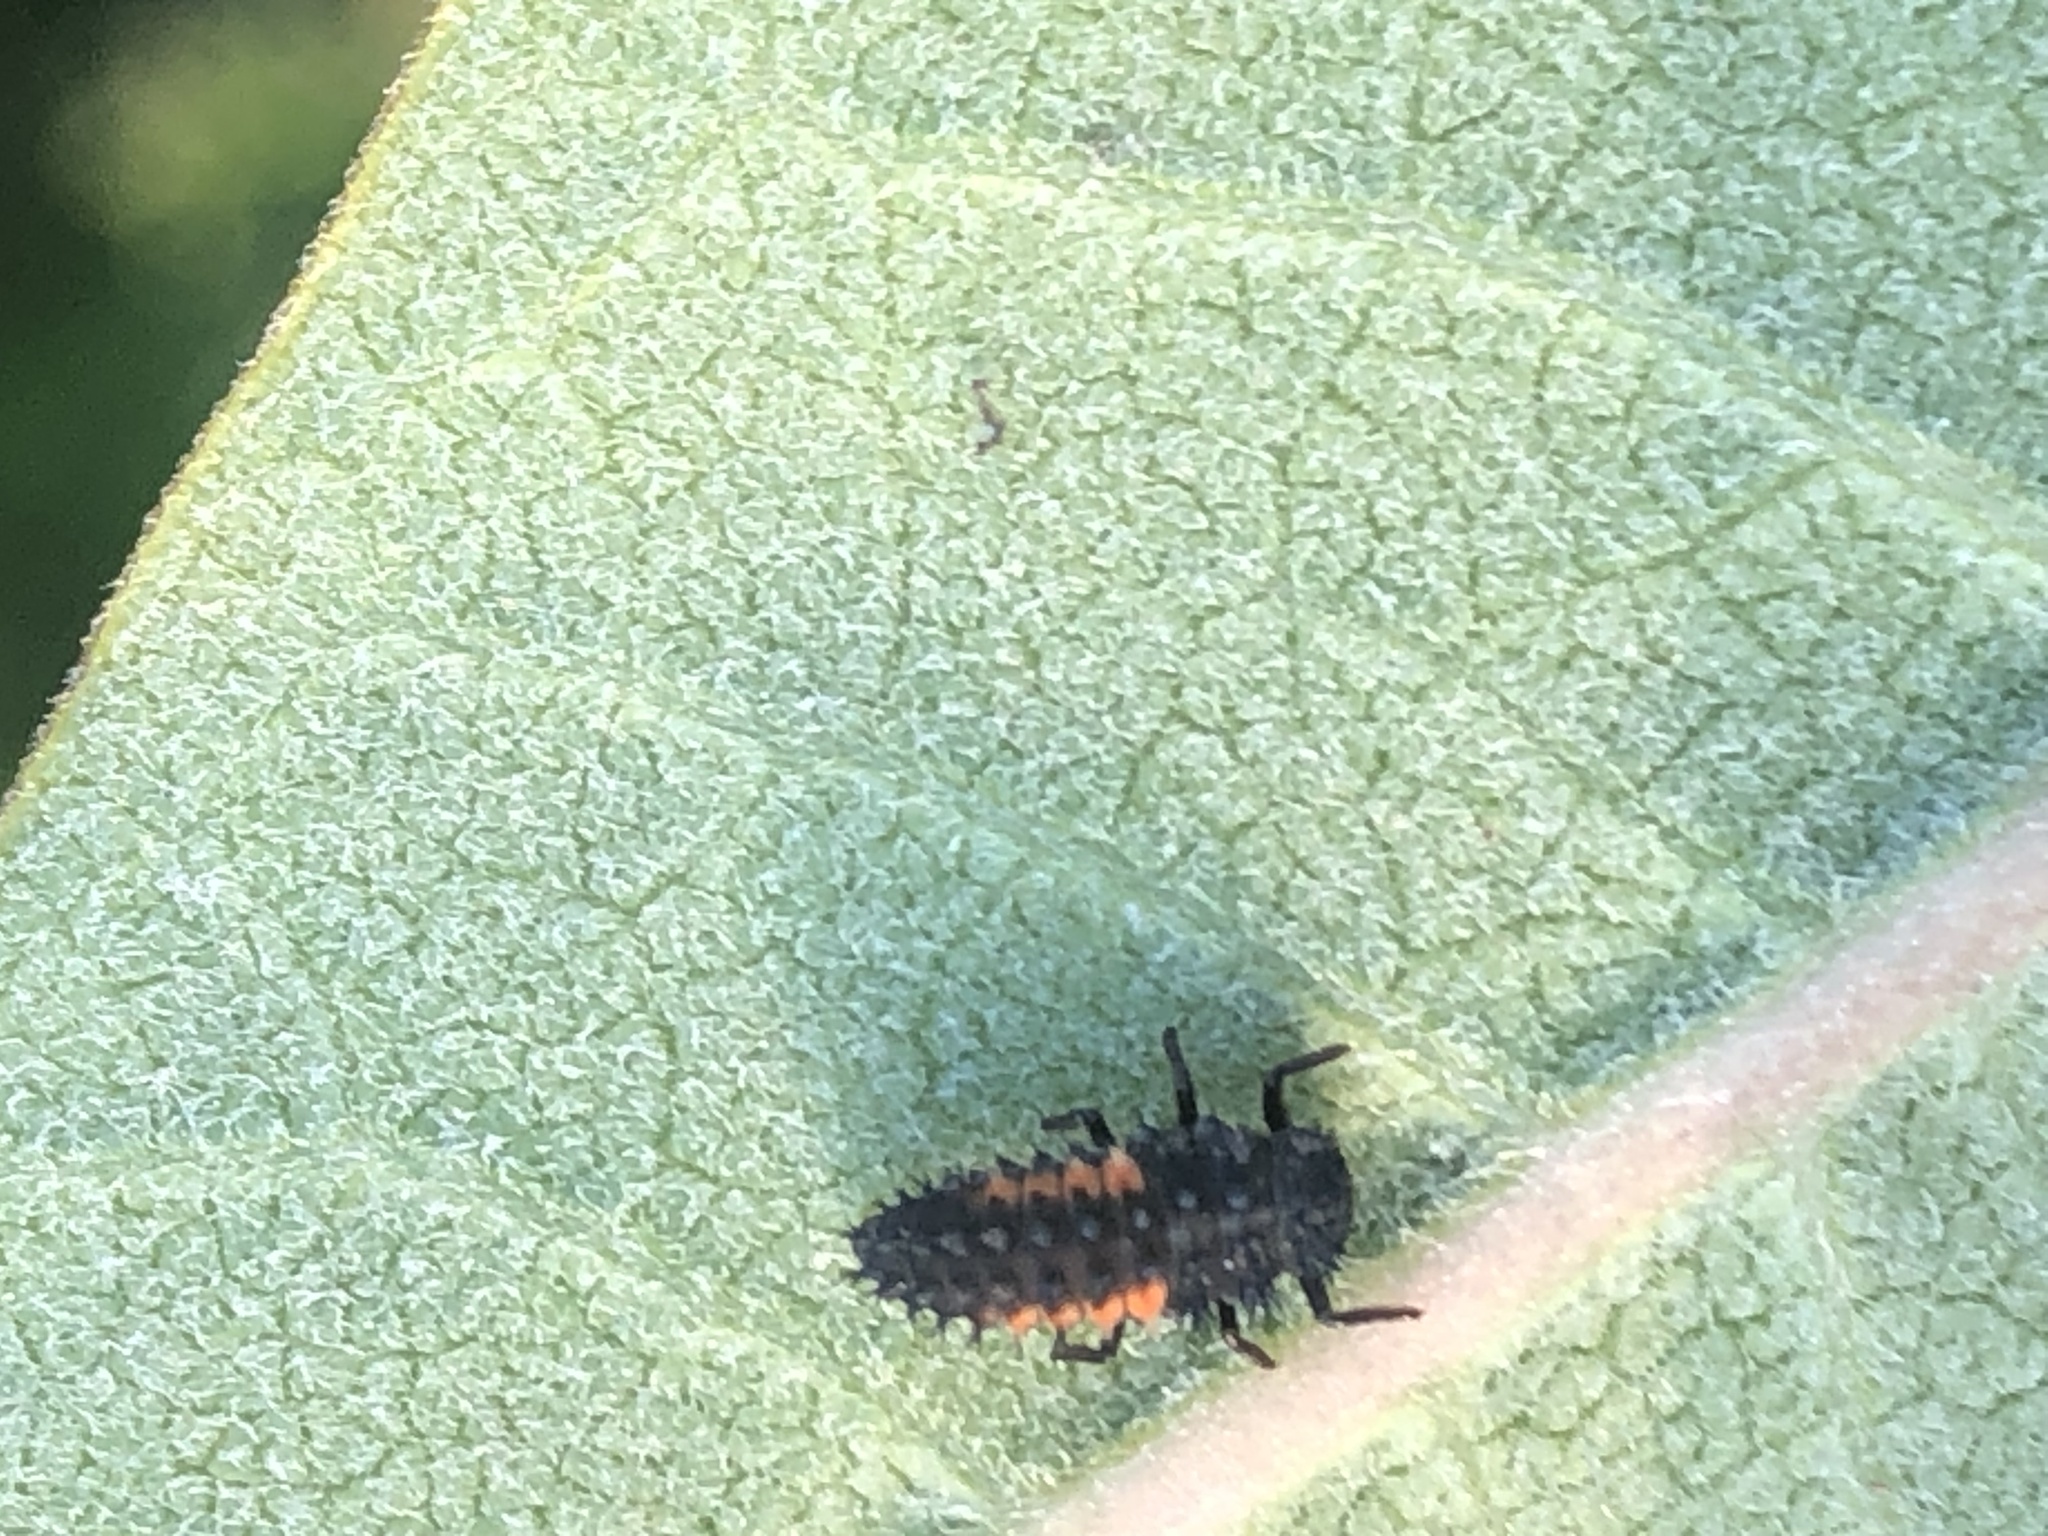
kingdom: Animalia
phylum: Arthropoda
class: Insecta
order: Coleoptera
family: Coccinellidae
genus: Harmonia
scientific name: Harmonia axyridis
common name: Harlequin ladybird
